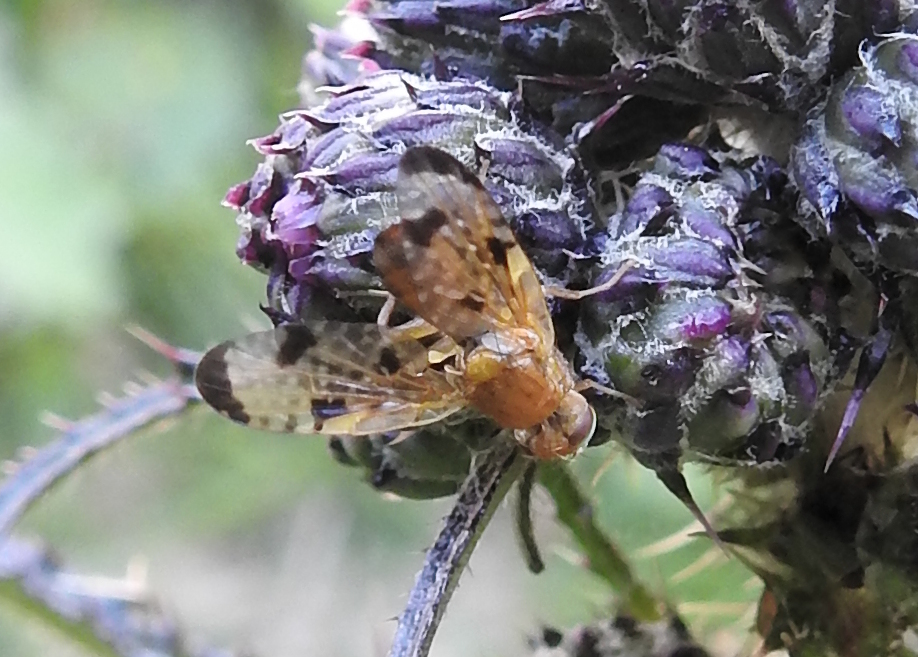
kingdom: Animalia
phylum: Arthropoda
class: Insecta
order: Diptera
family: Tephritidae
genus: Xyphosia
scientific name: Xyphosia miliaria
